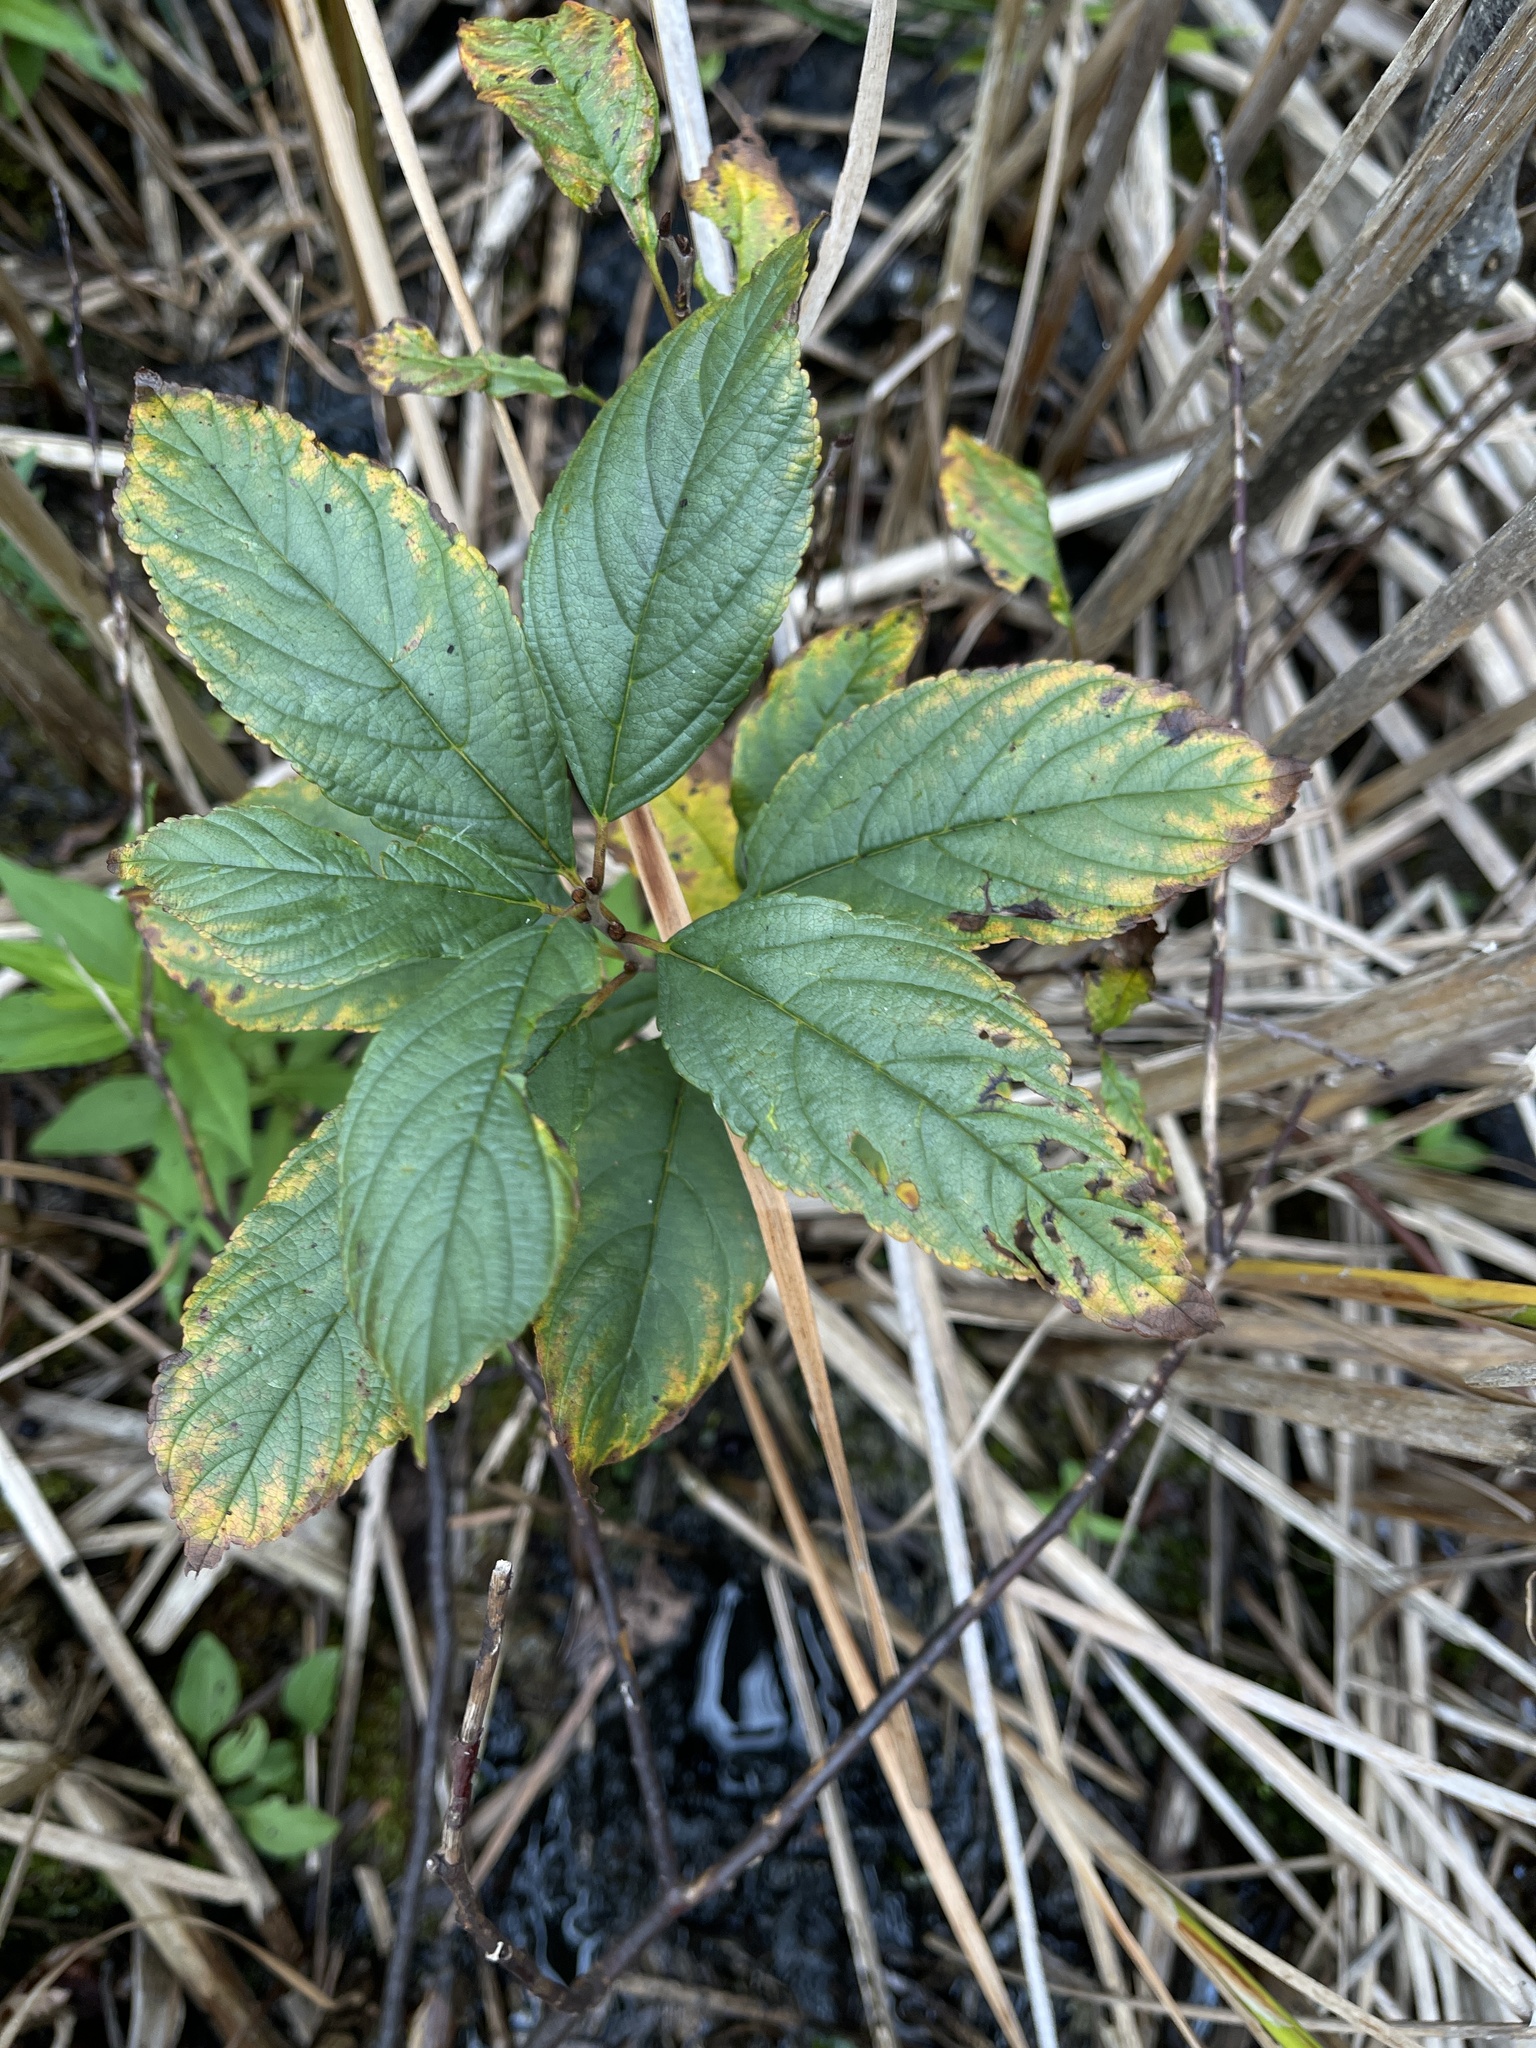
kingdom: Plantae
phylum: Tracheophyta
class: Magnoliopsida
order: Rosales
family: Rhamnaceae
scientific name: Rhamnaceae
